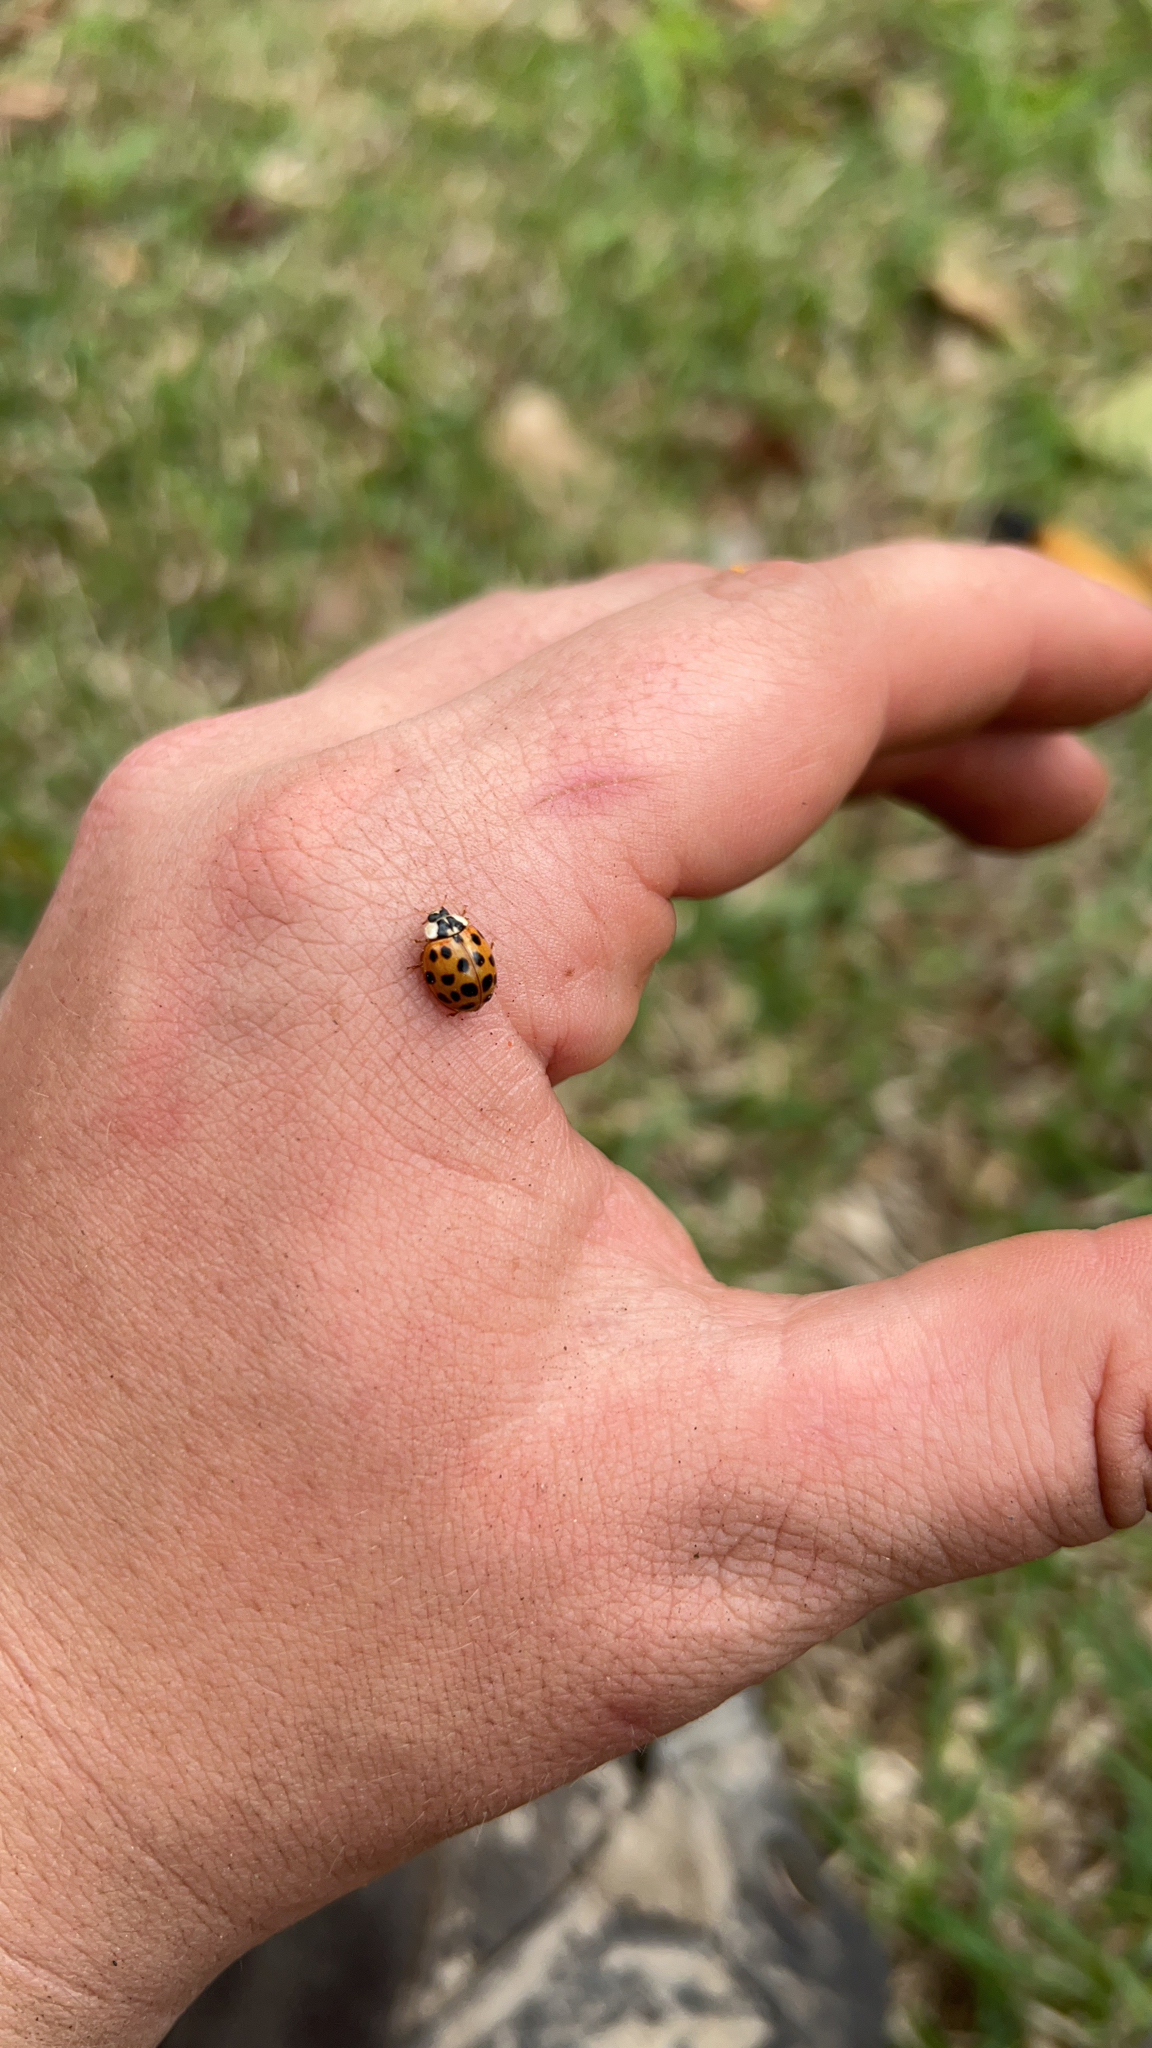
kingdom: Animalia
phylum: Arthropoda
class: Insecta
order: Coleoptera
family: Coccinellidae
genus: Harmonia
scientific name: Harmonia axyridis
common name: Harlequin ladybird
